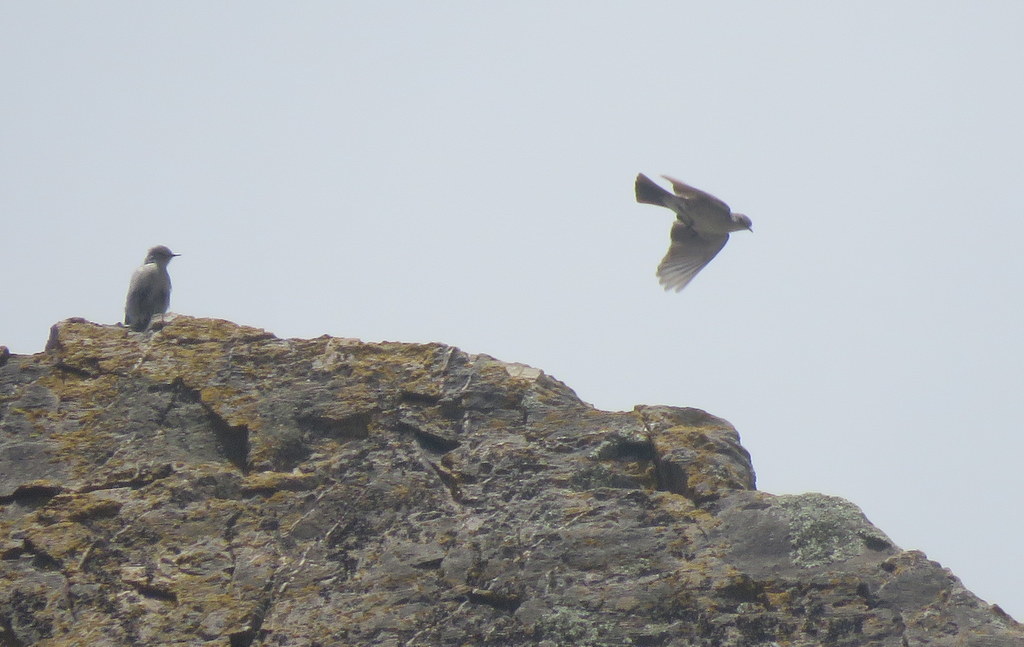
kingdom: Animalia
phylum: Chordata
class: Aves
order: Passeriformes
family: Tyrannidae
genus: Muscisaxicola
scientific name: Muscisaxicola cinereus
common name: Cinereous ground tyrant
